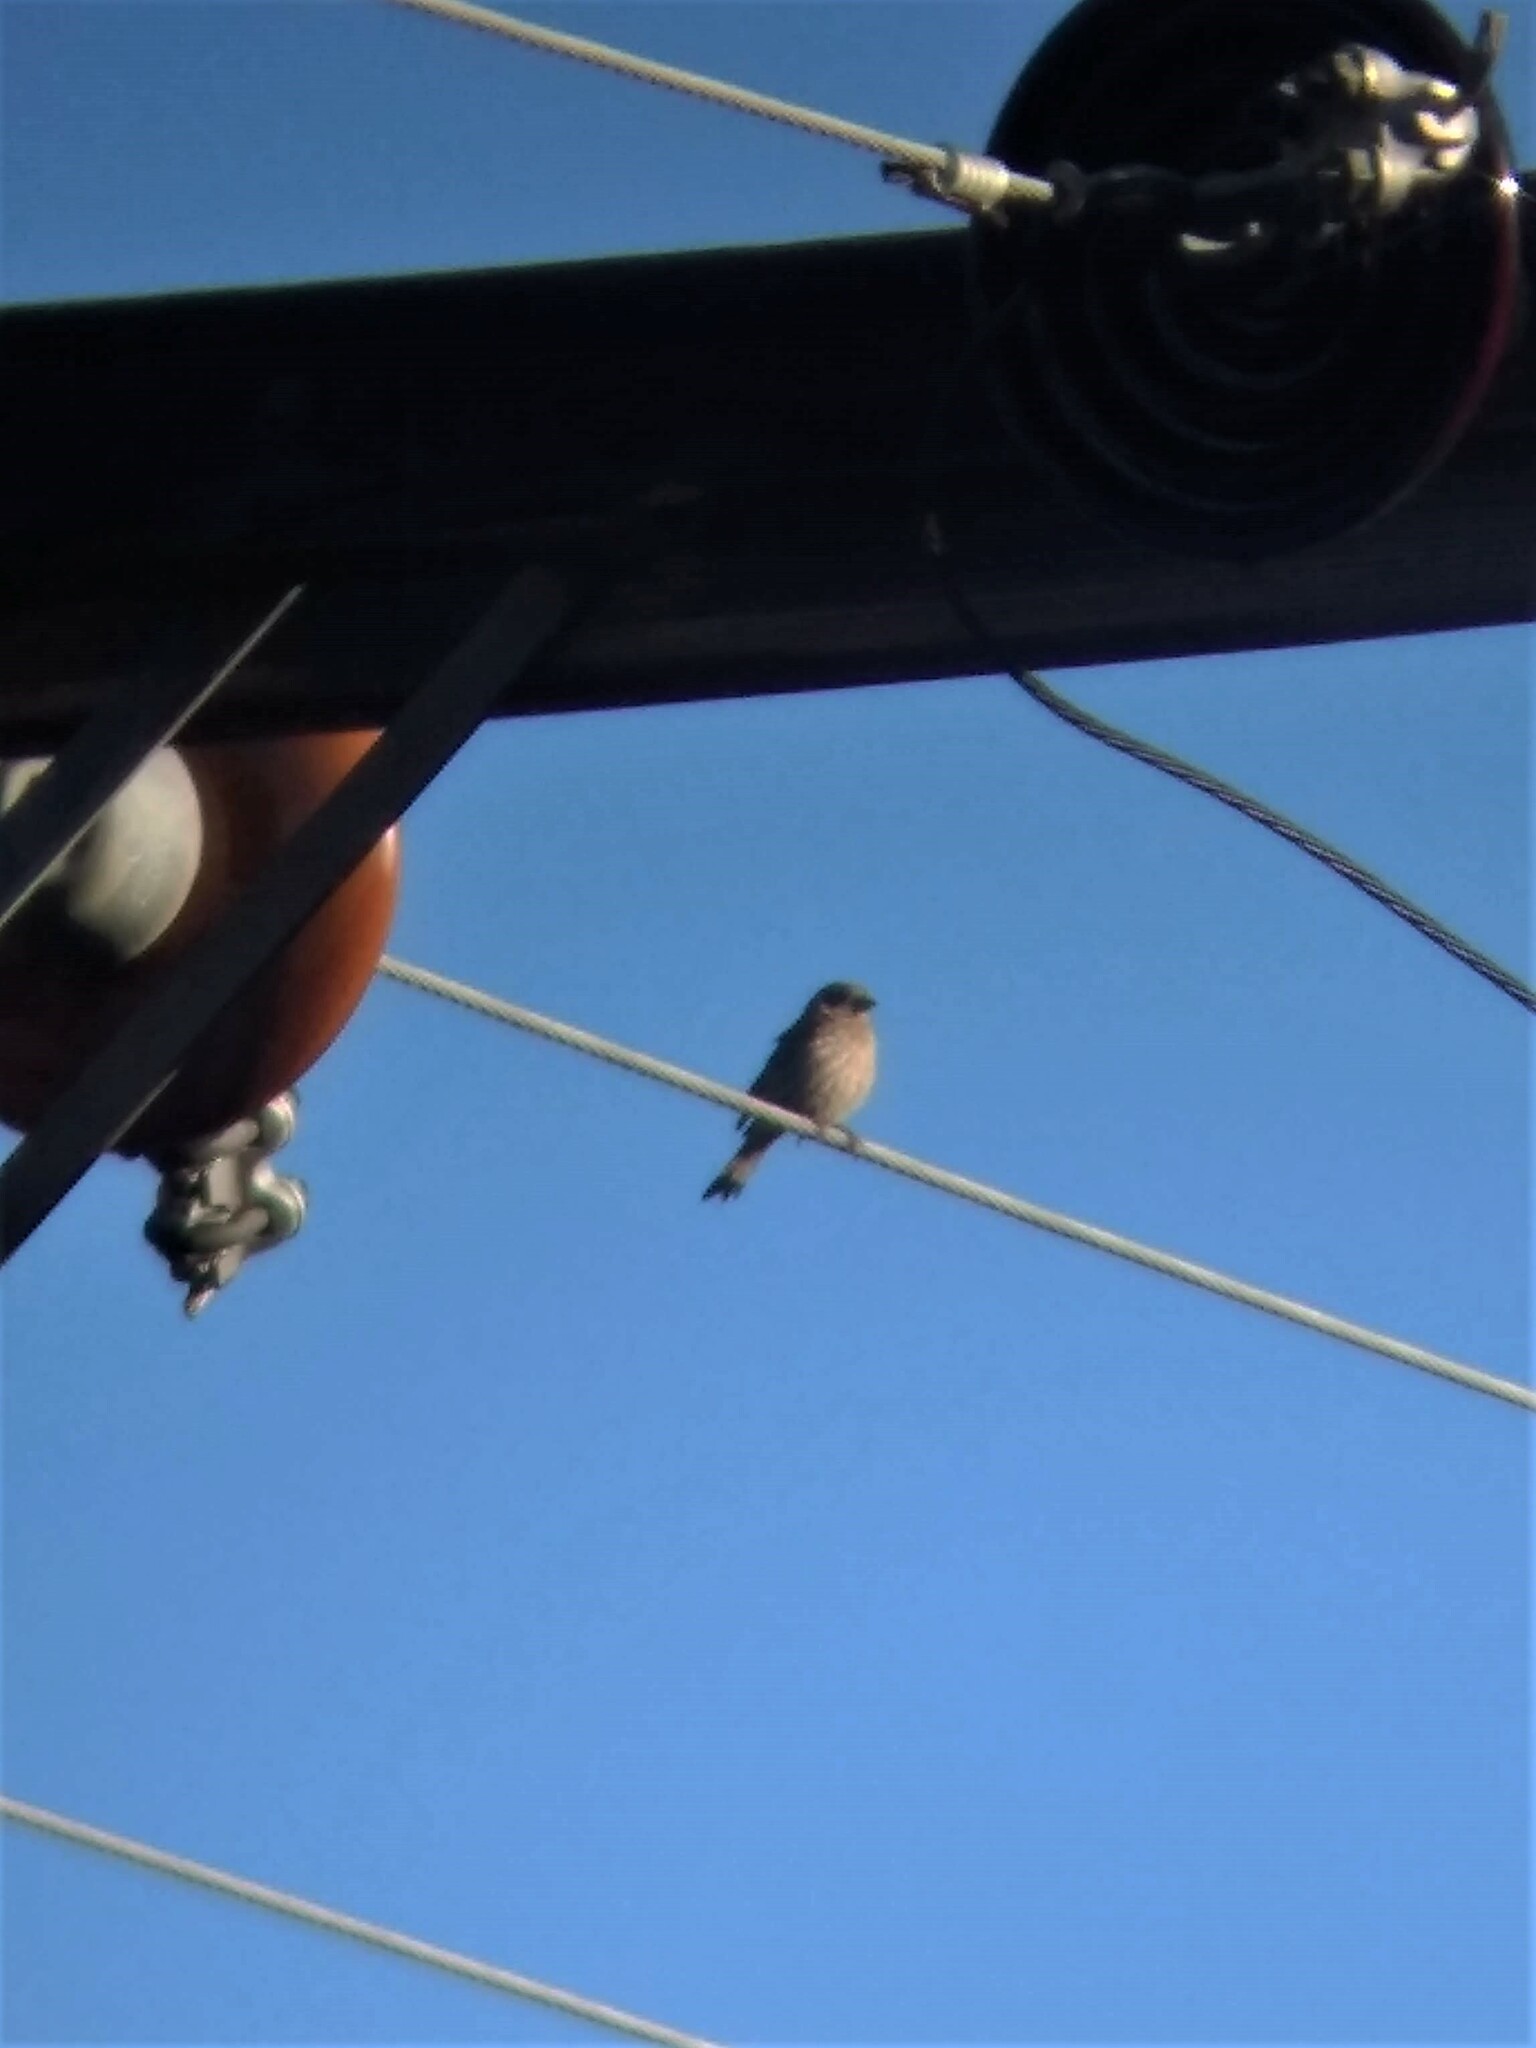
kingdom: Animalia
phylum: Chordata
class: Aves
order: Passeriformes
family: Fringillidae
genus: Haemorhous
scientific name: Haemorhous mexicanus
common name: House finch
